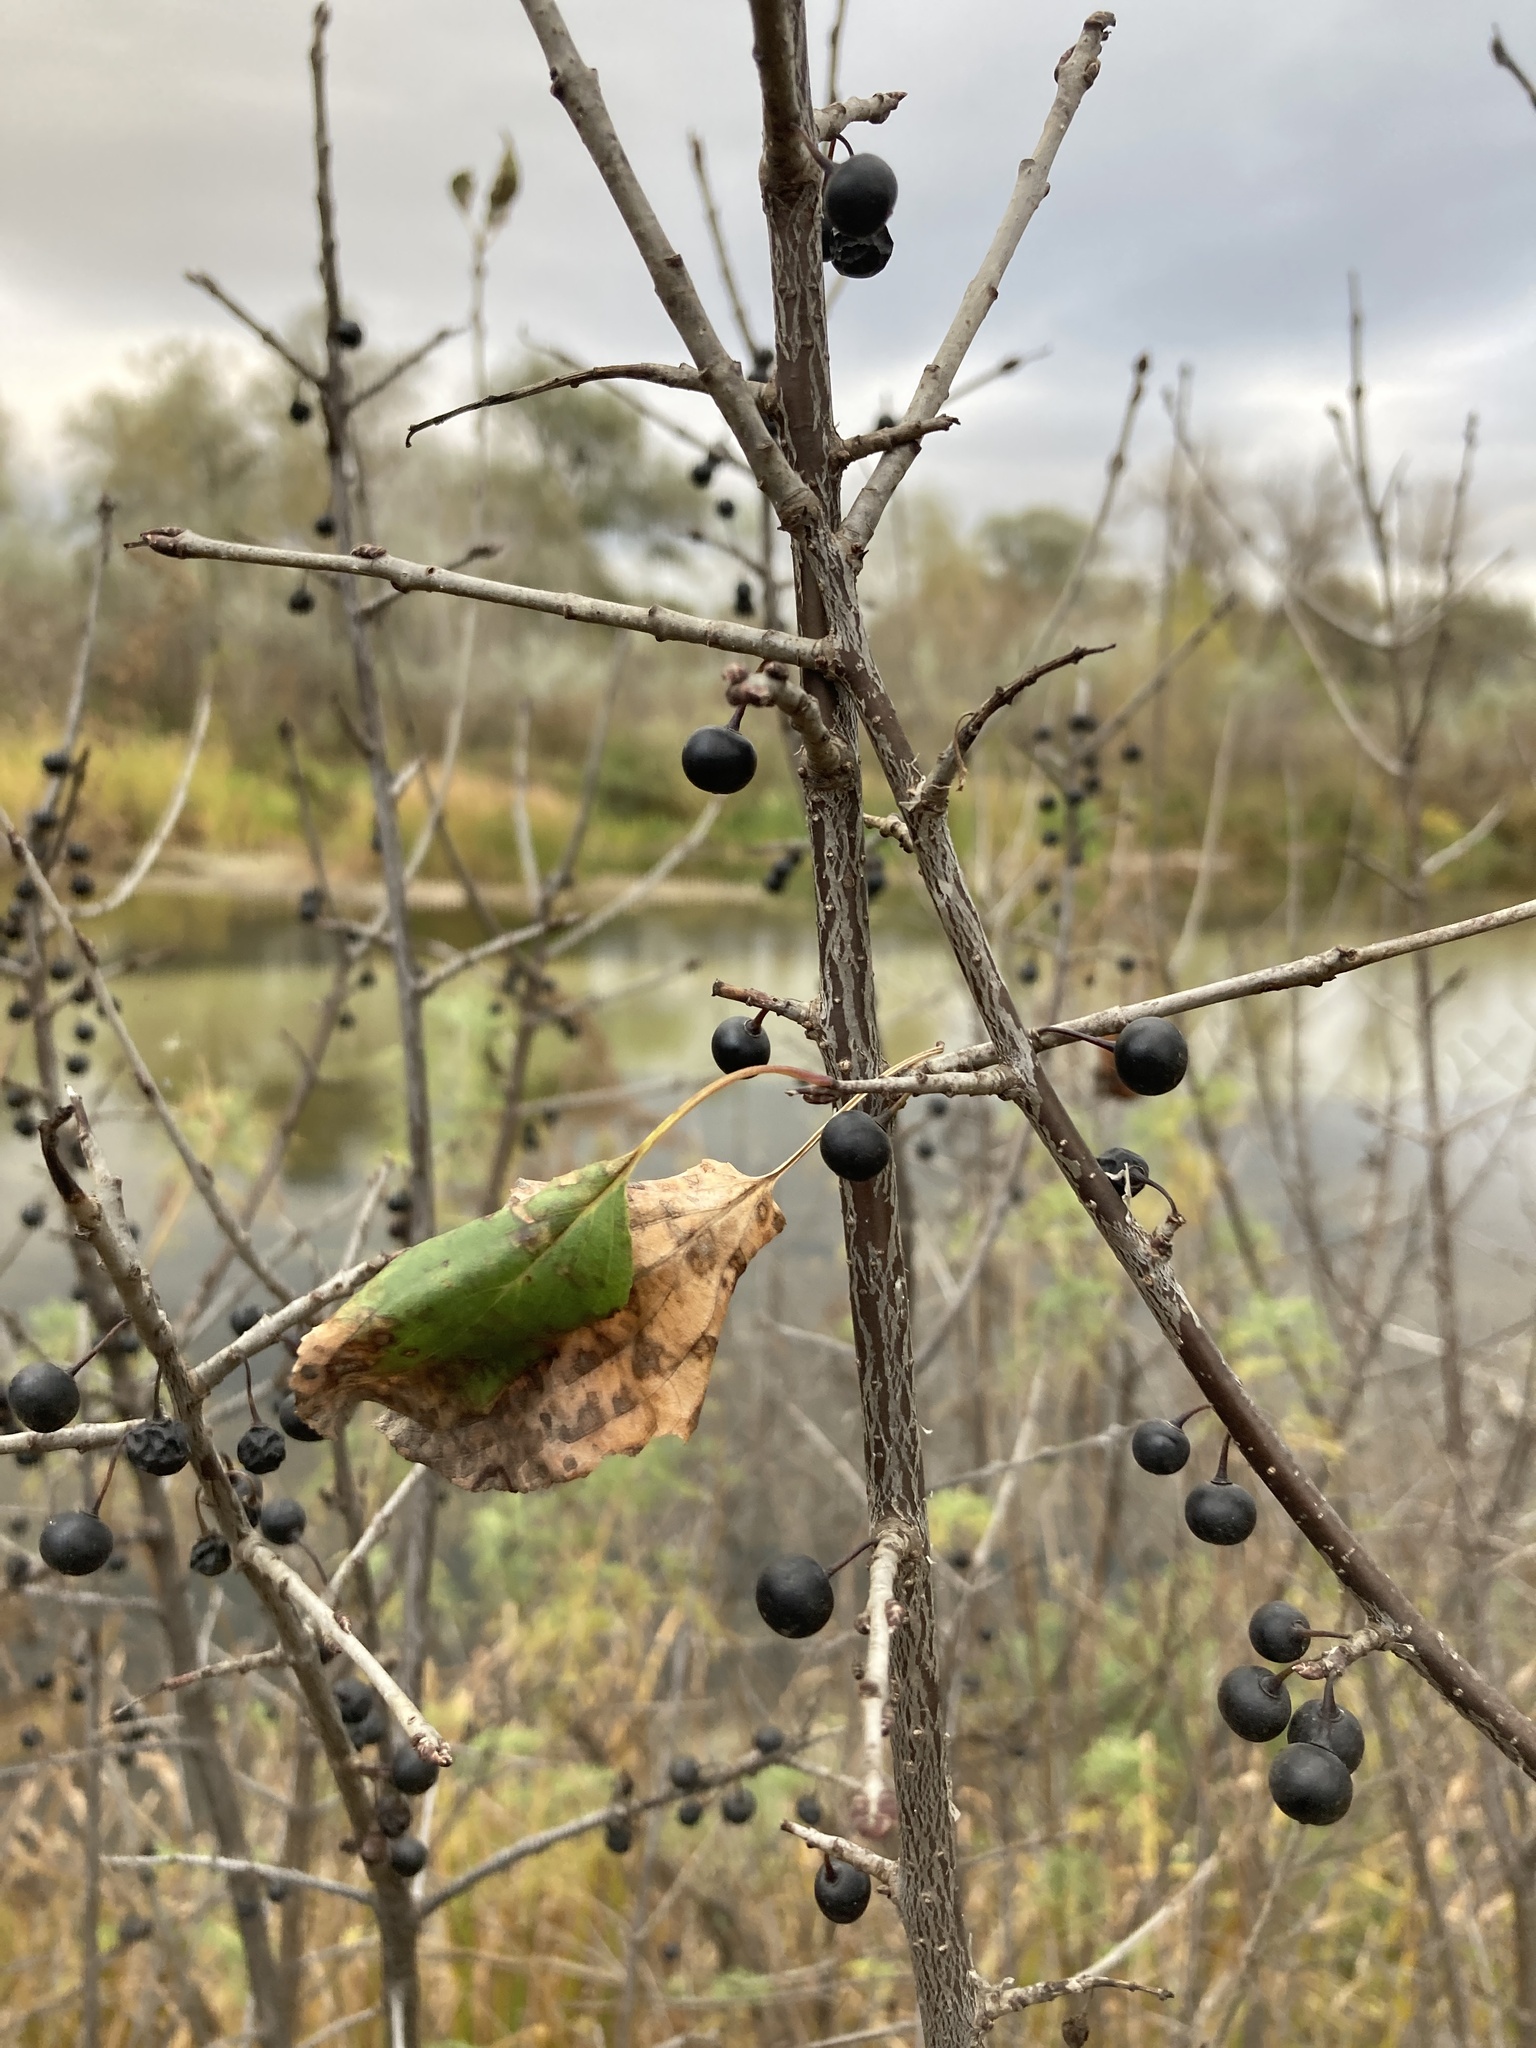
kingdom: Plantae
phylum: Tracheophyta
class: Magnoliopsida
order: Rosales
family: Rhamnaceae
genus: Rhamnus
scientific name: Rhamnus cathartica
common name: Common buckthorn
